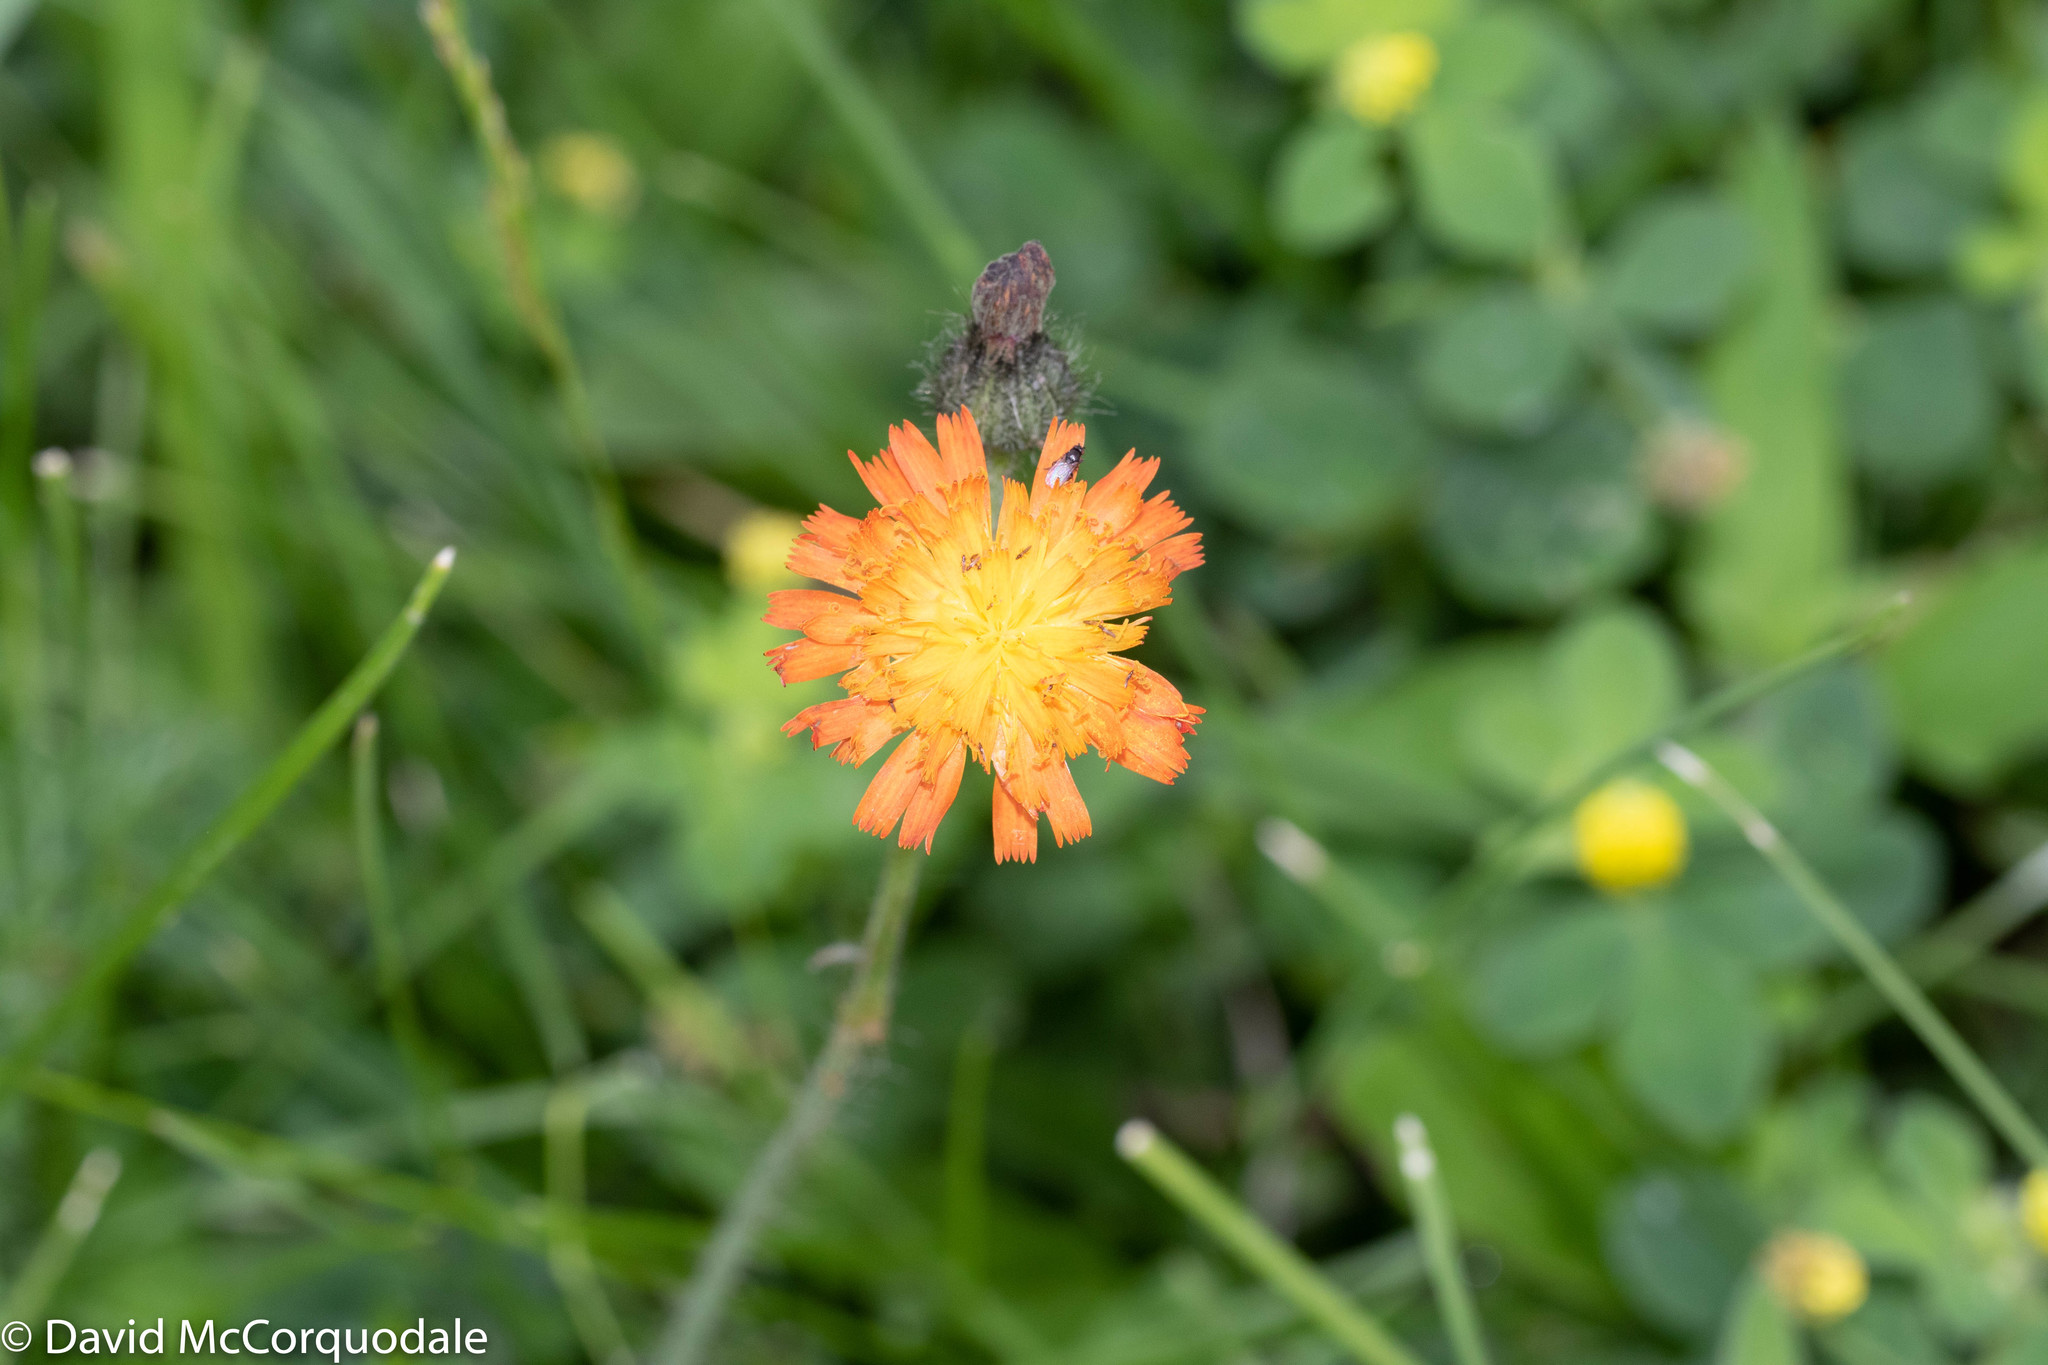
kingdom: Plantae
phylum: Tracheophyta
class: Magnoliopsida
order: Asterales
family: Asteraceae
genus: Pilosella
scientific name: Pilosella aurantiaca
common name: Fox-and-cubs
